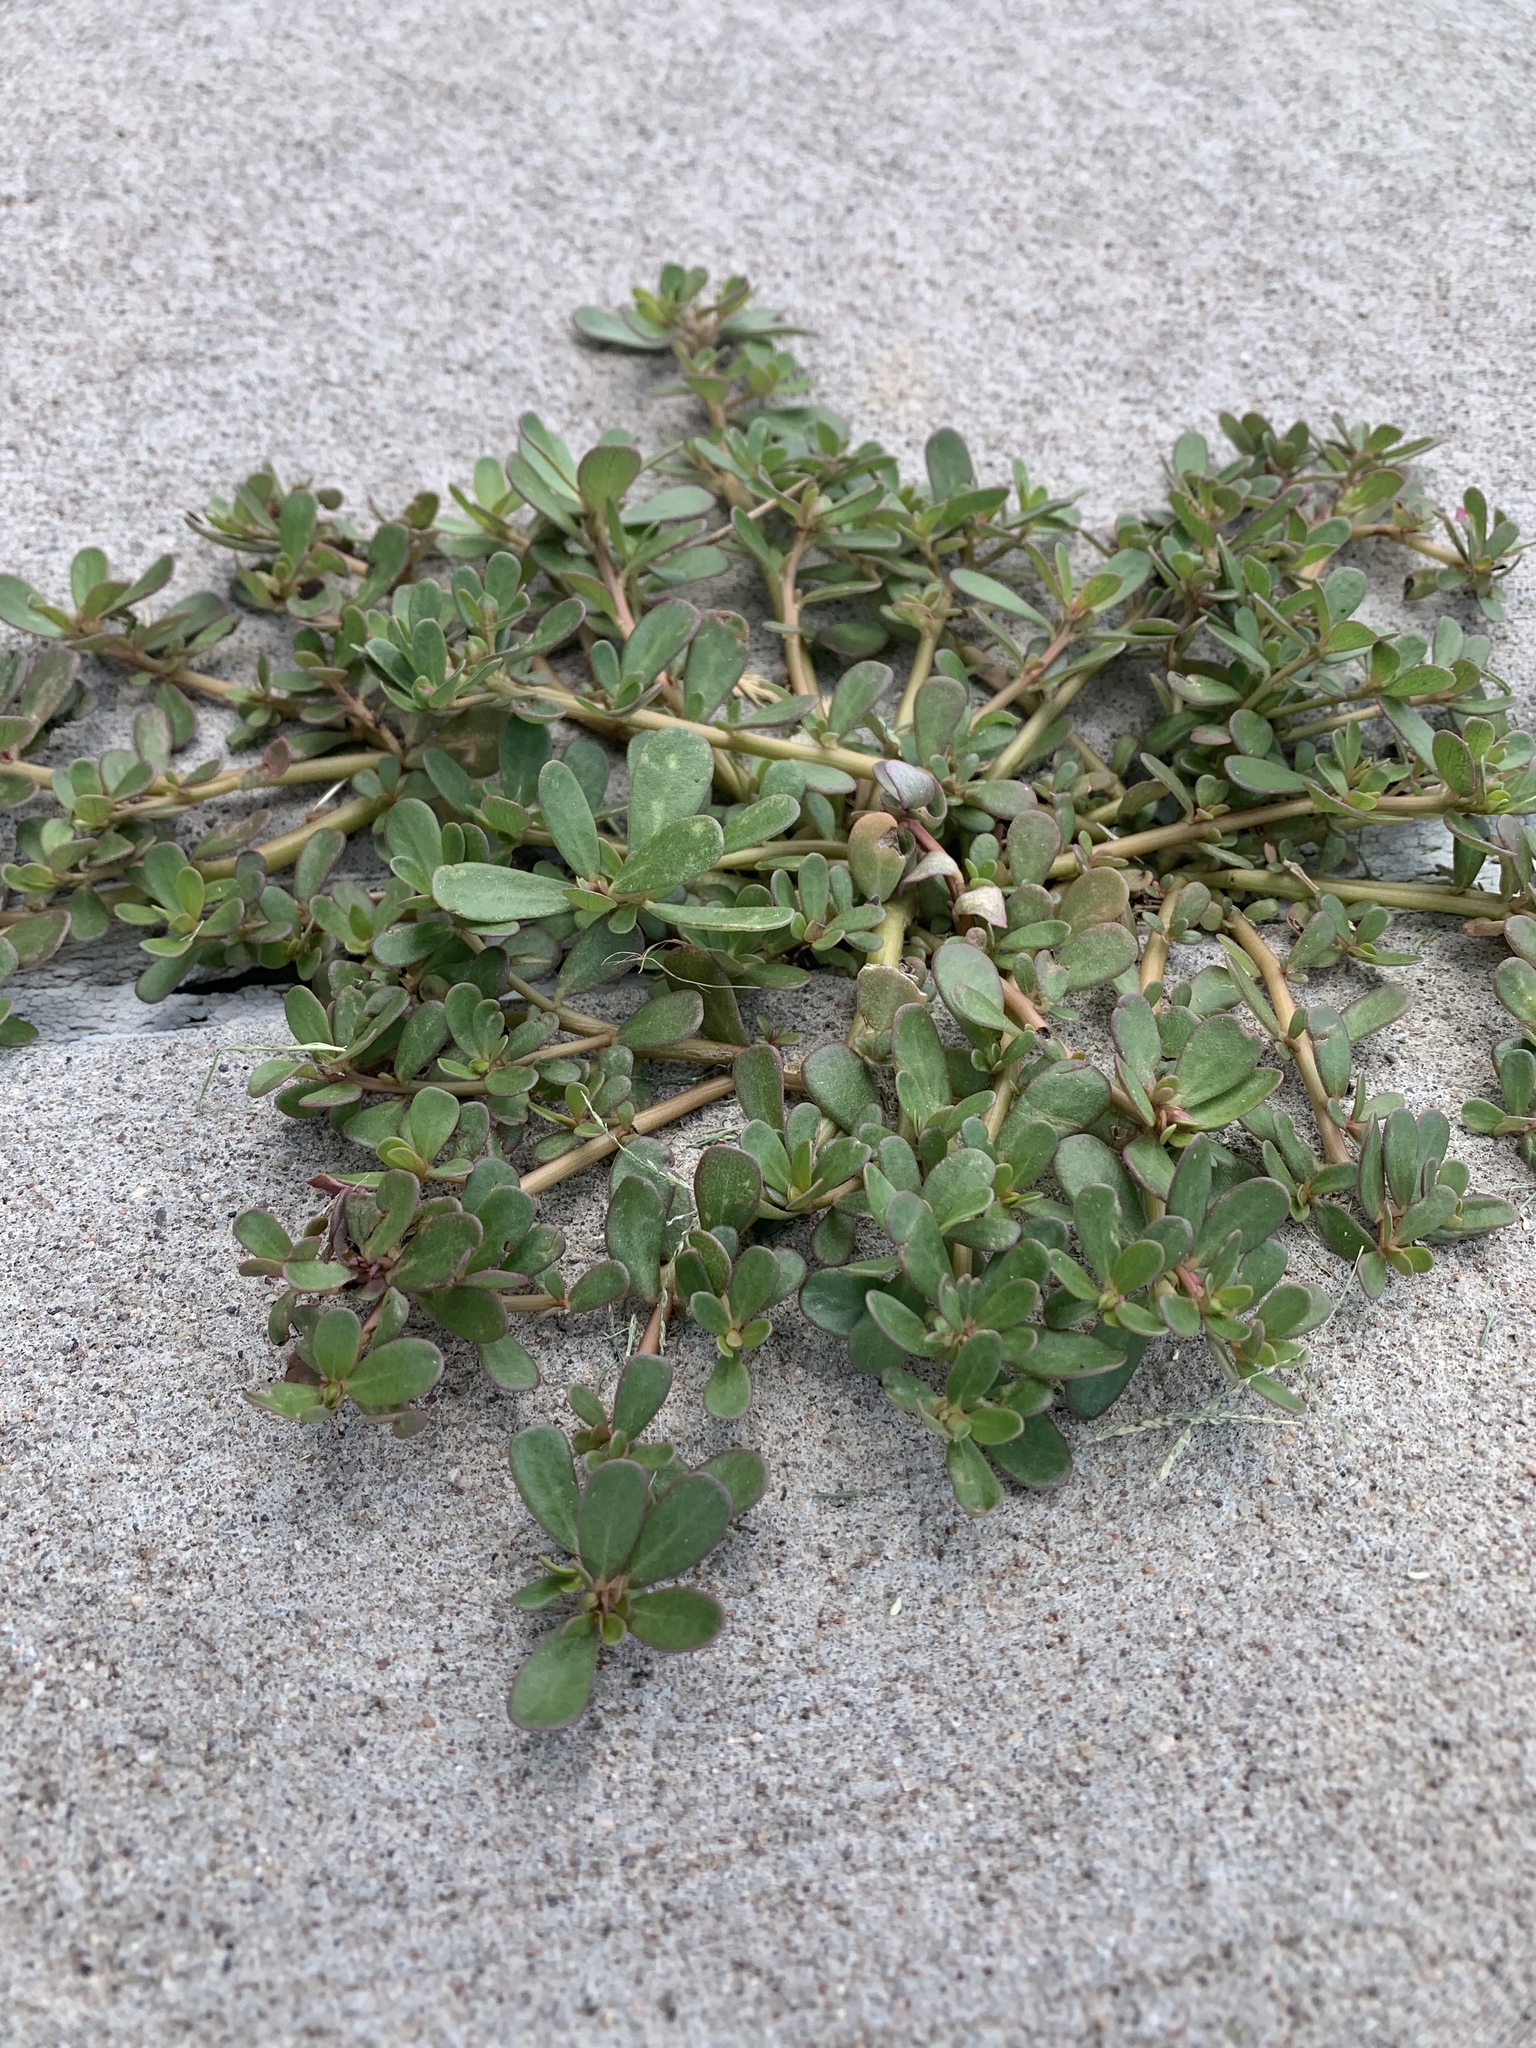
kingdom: Plantae
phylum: Tracheophyta
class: Magnoliopsida
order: Caryophyllales
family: Portulacaceae
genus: Portulaca
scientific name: Portulaca oleracea
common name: Common purslane
